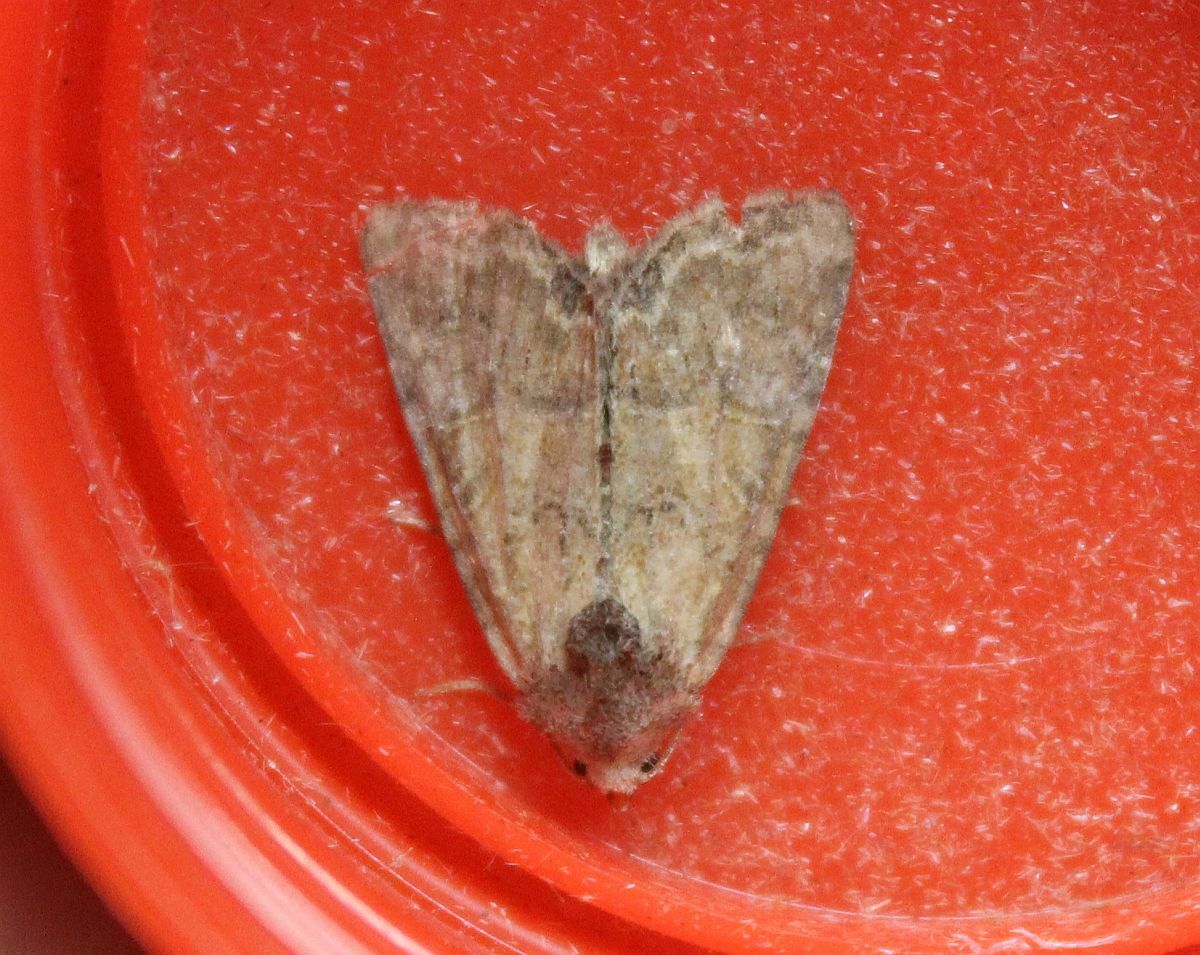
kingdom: Animalia
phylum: Arthropoda
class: Insecta
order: Lepidoptera
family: Noctuidae
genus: Mesoligia
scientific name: Mesoligia furuncula
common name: Cloaked minor
